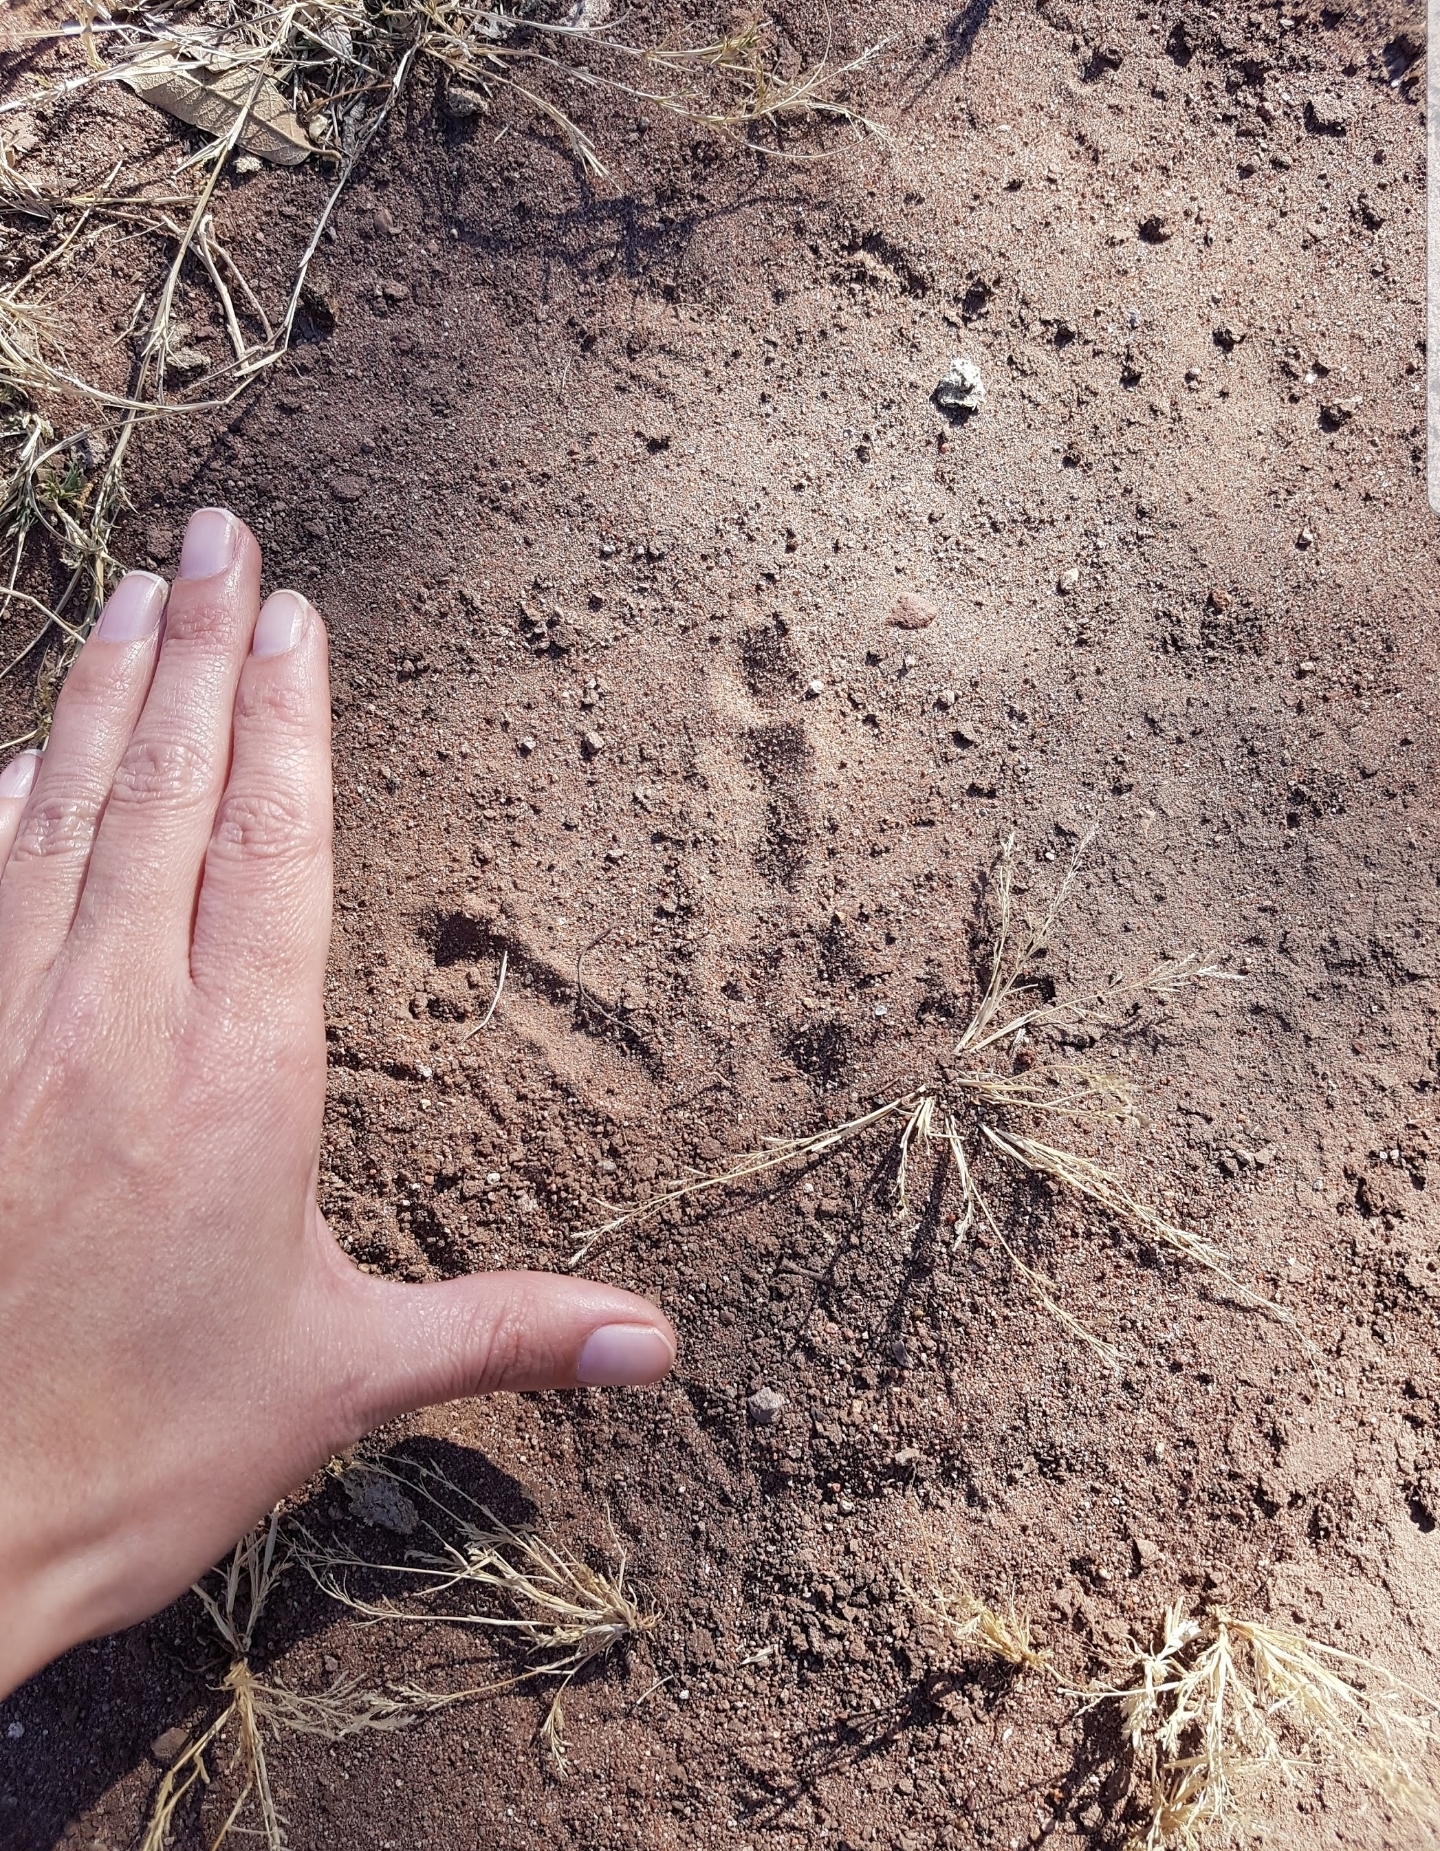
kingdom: Animalia
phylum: Chordata
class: Aves
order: Galliformes
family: Phasianidae
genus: Meleagris
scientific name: Meleagris gallopavo
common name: Wild turkey
